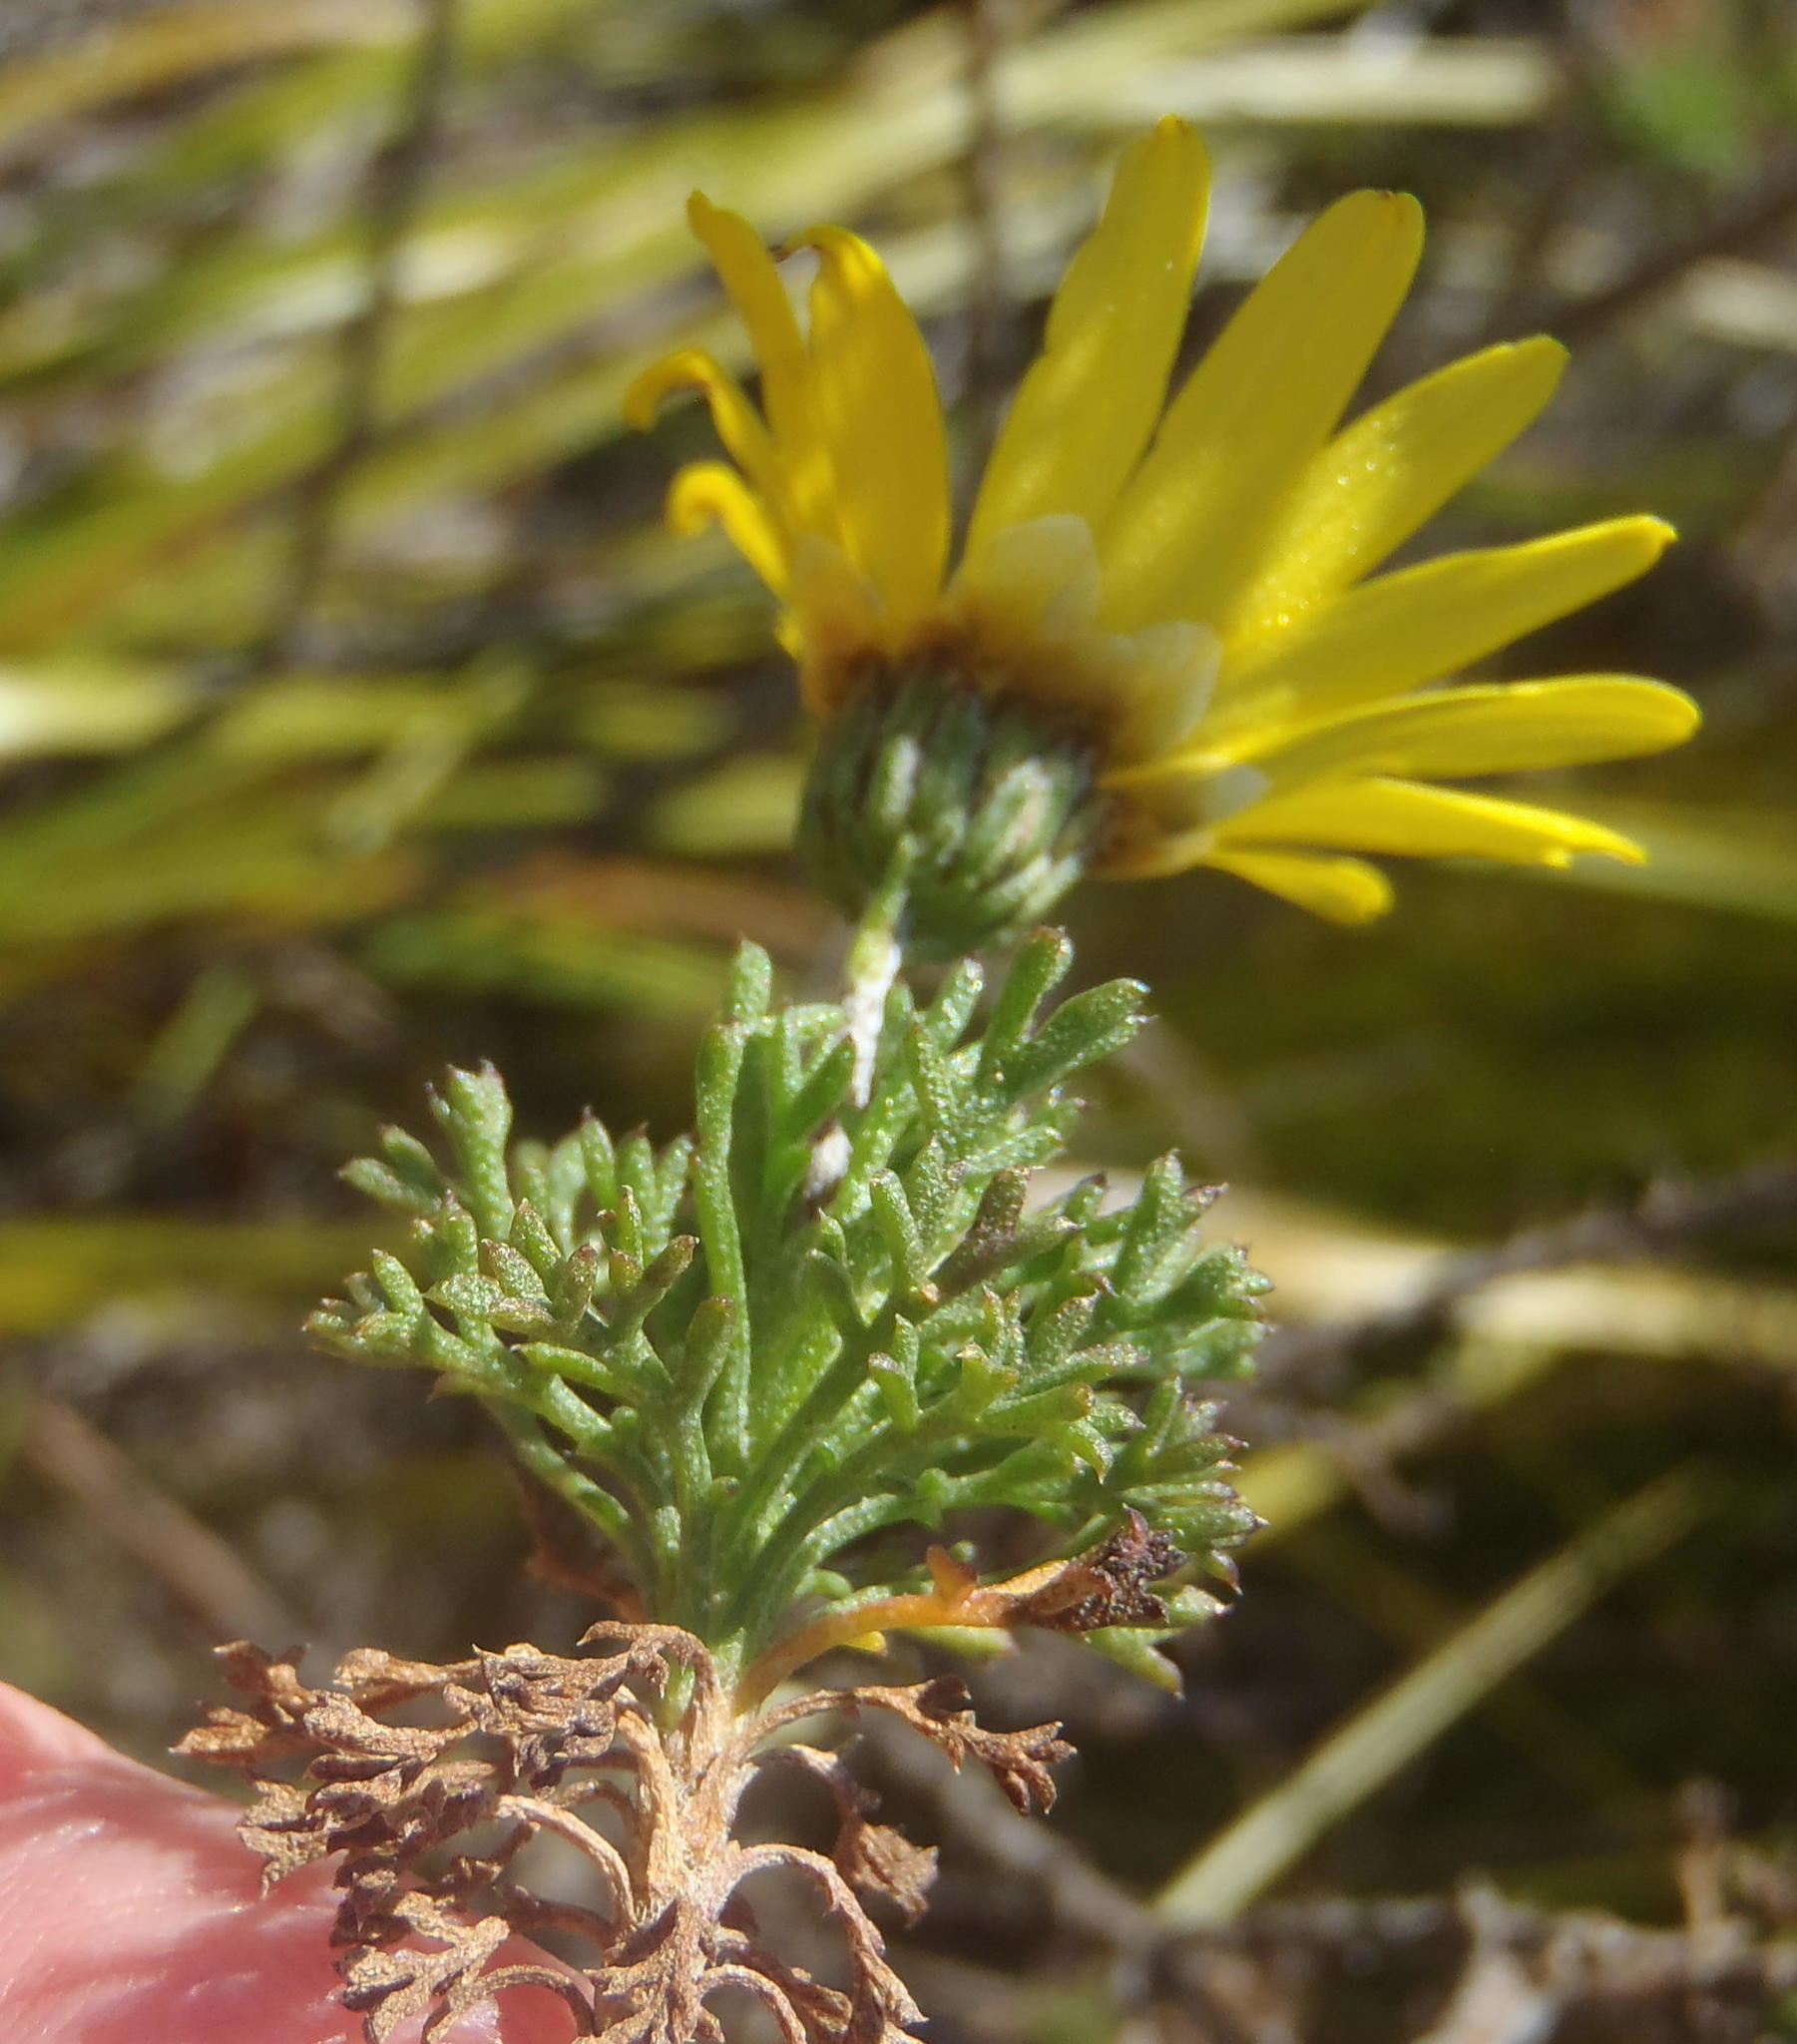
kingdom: Plantae
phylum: Tracheophyta
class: Magnoliopsida
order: Asterales
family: Asteraceae
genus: Ursinia
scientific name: Ursinia anethoides
